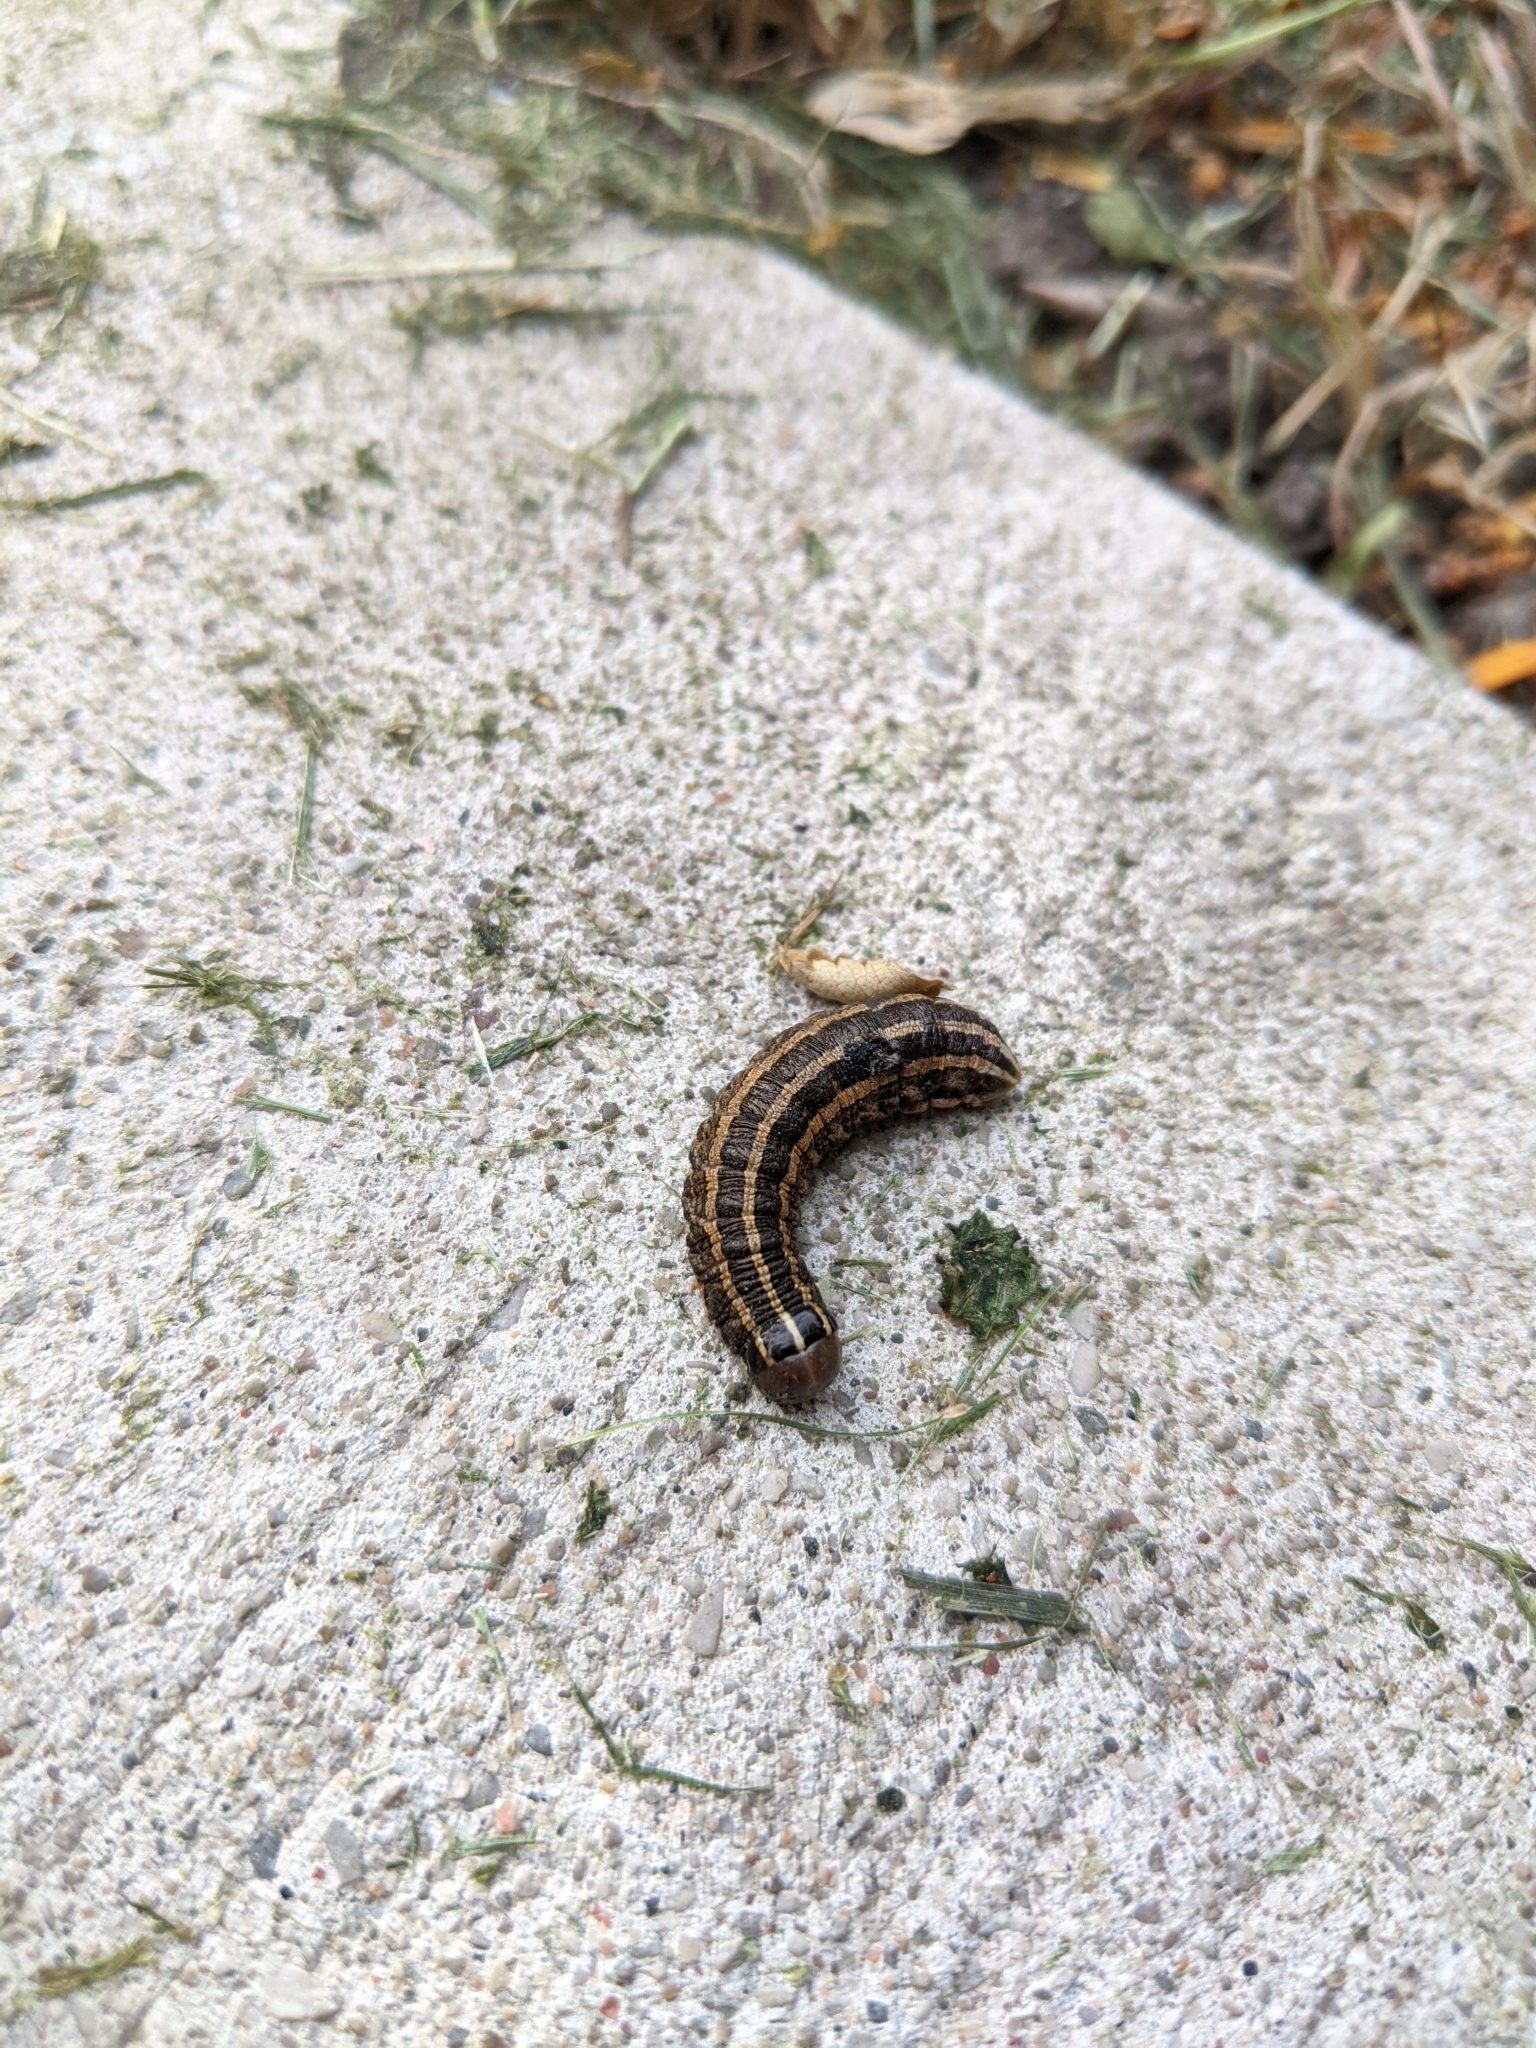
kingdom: Animalia
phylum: Arthropoda
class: Insecta
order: Lepidoptera
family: Noctuidae
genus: Nephelodes
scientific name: Nephelodes minians
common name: Bronzed cutworm
